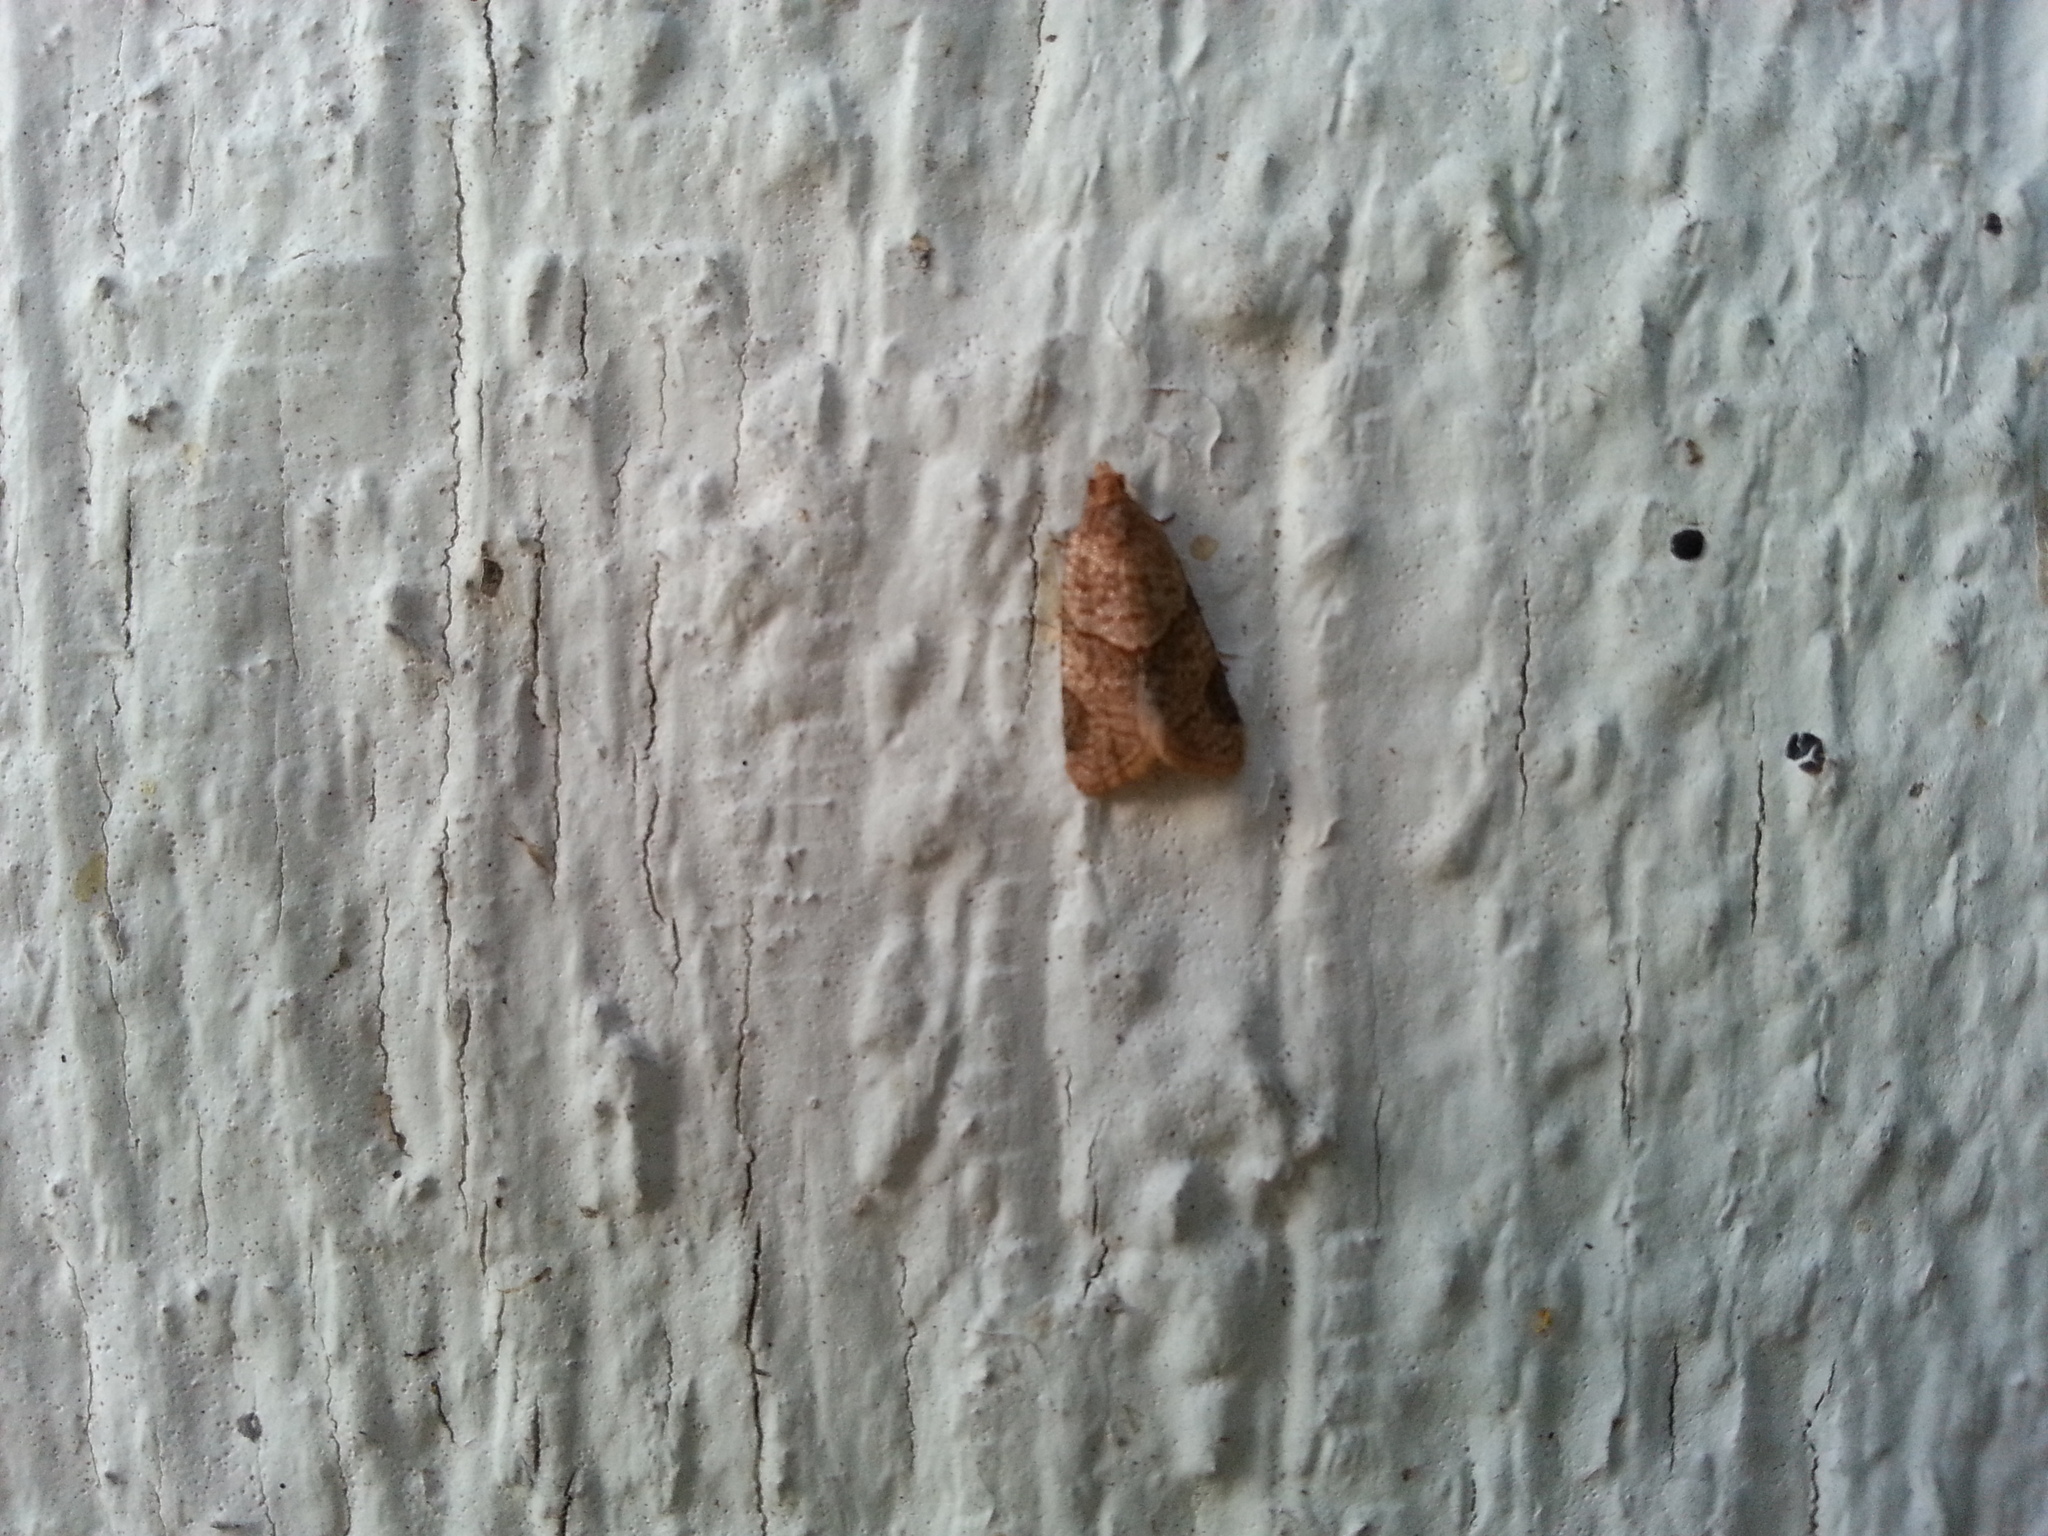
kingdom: Animalia
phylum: Arthropoda
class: Insecta
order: Lepidoptera
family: Tortricidae
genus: Clepsis
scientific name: Clepsis peritana
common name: Garden tortrix
